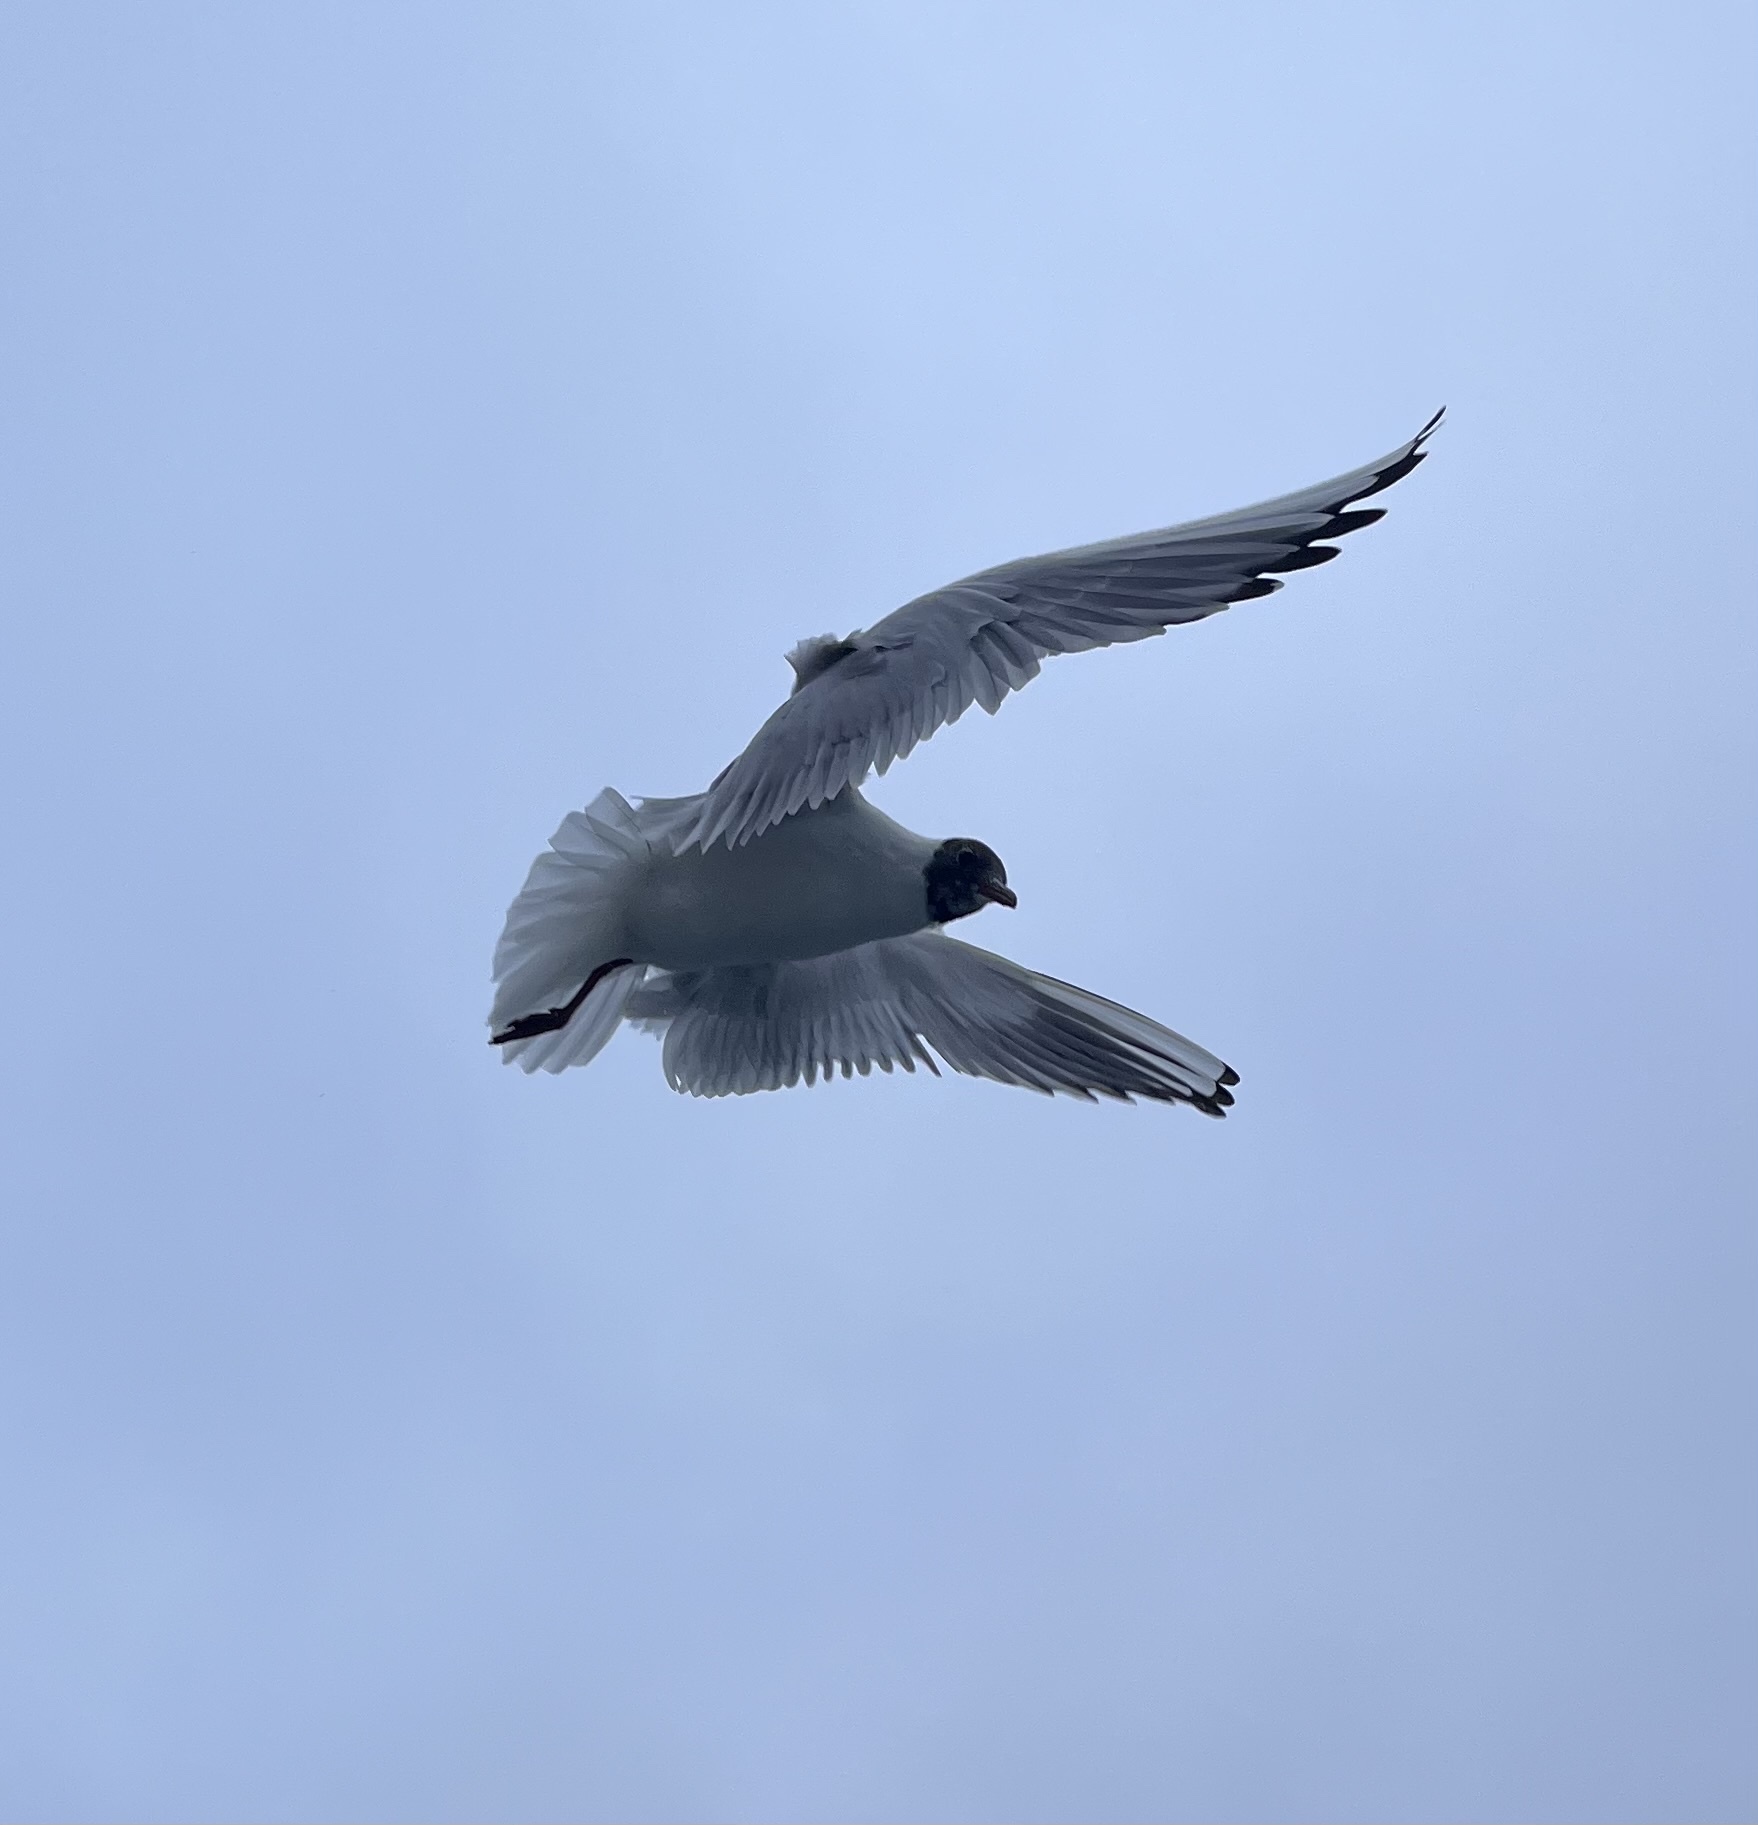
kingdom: Animalia
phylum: Chordata
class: Aves
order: Charadriiformes
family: Laridae
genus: Chroicocephalus
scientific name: Chroicocephalus ridibundus
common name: Black-headed gull
